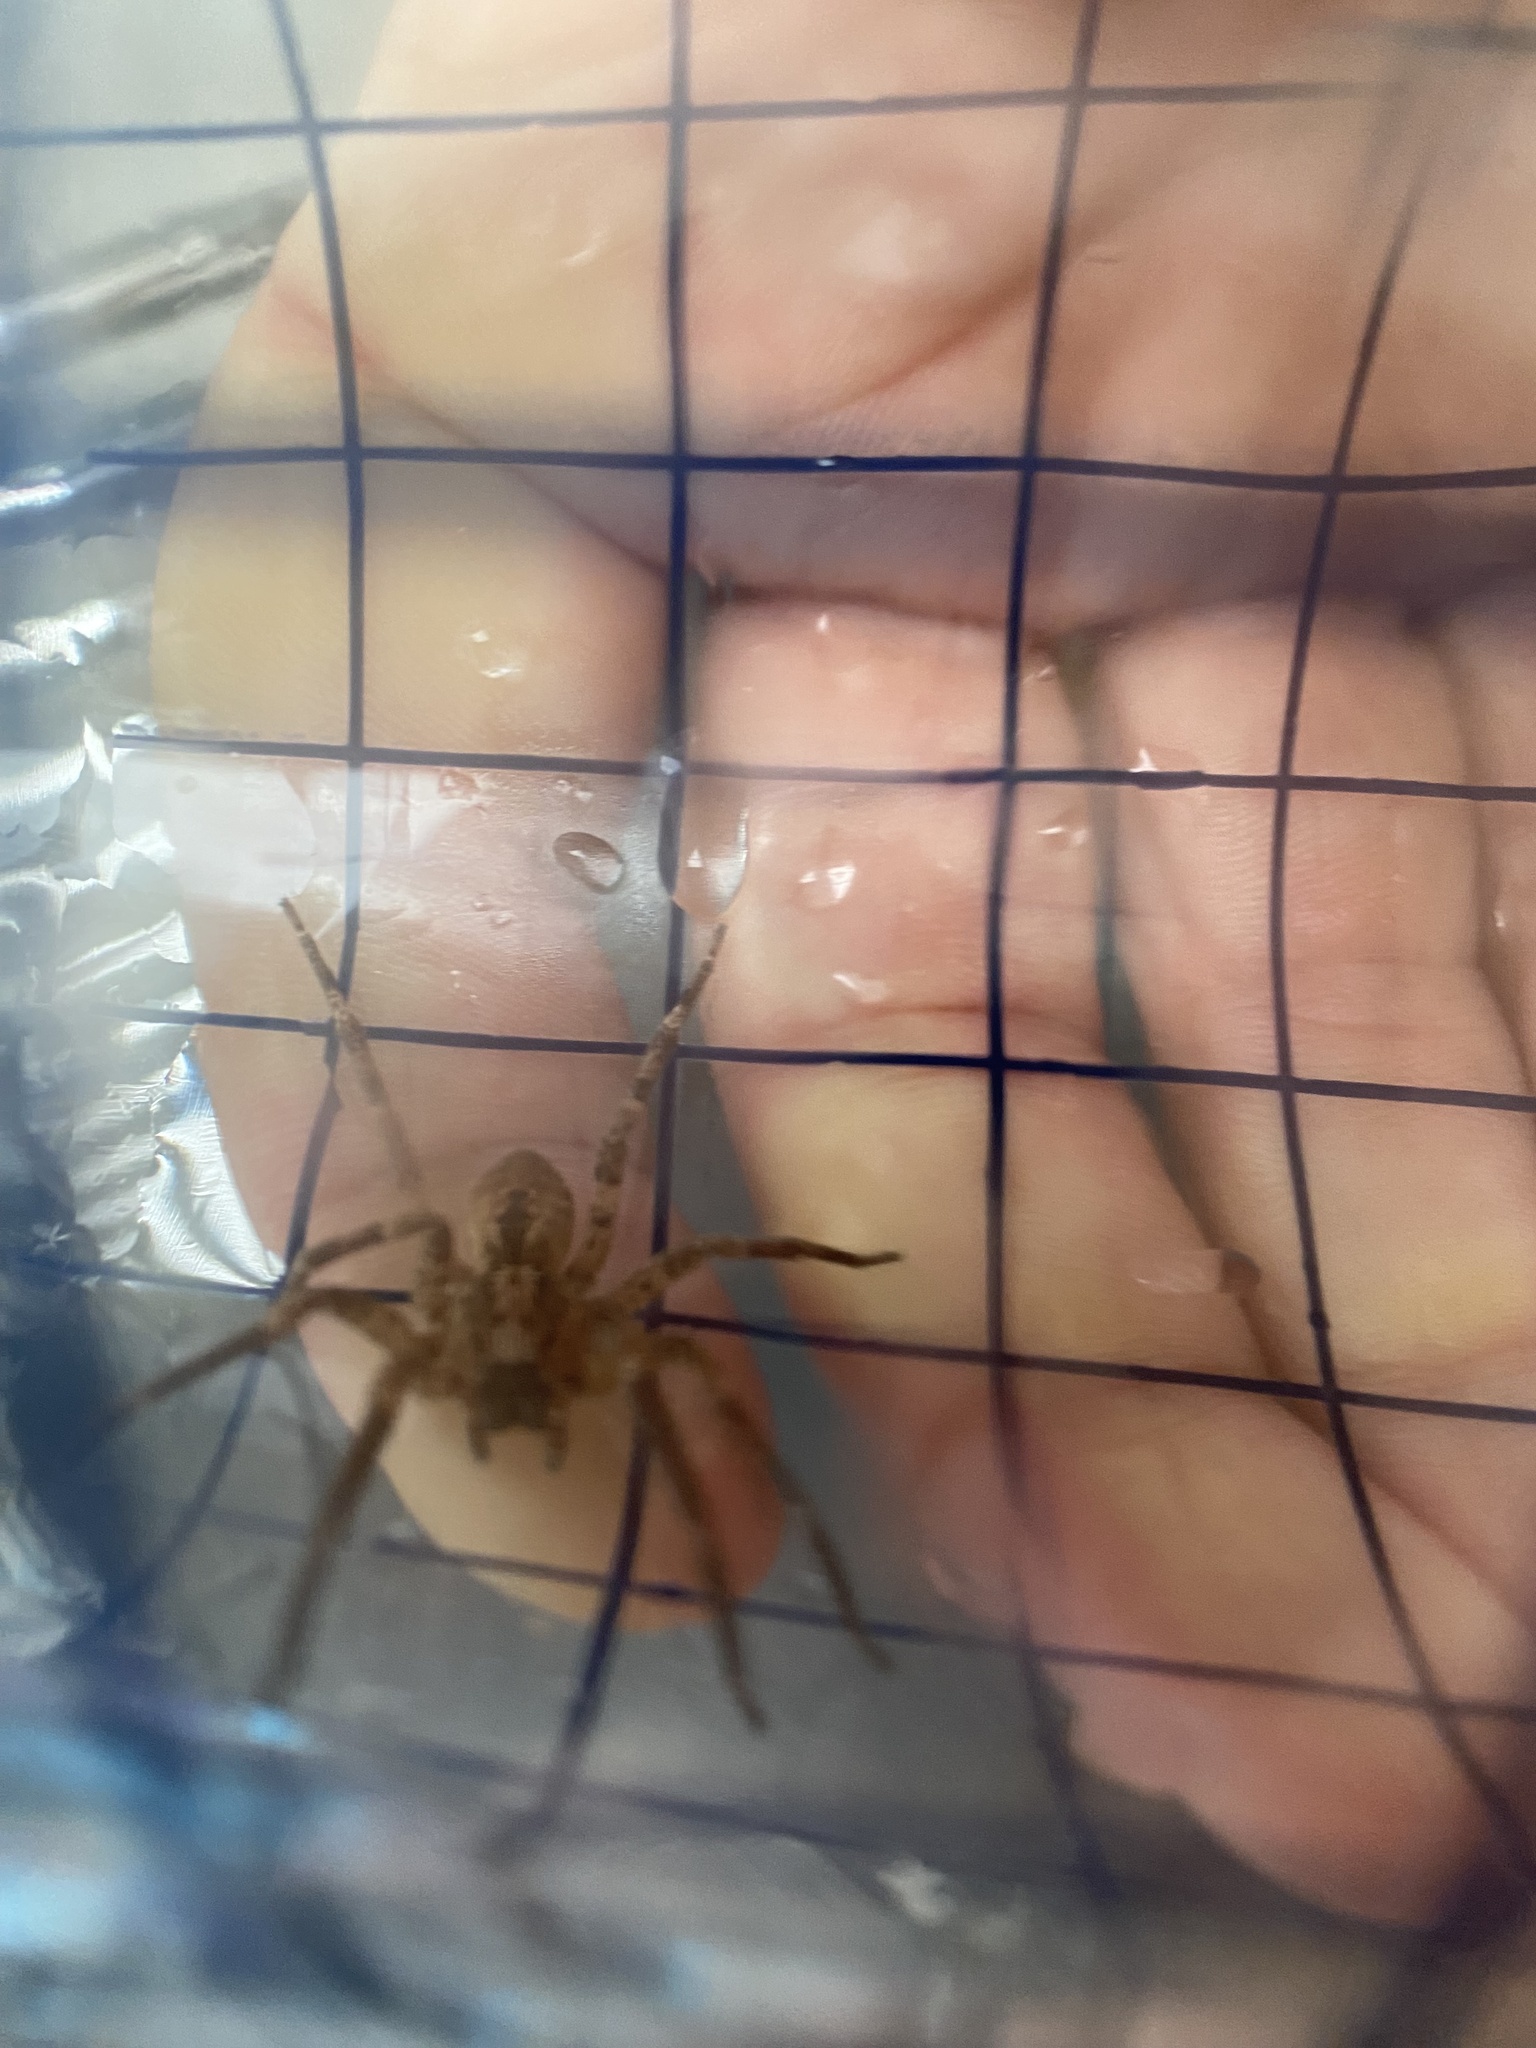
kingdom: Animalia
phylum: Arthropoda
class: Arachnida
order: Araneae
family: Zoropsidae
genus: Zoropsis
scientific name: Zoropsis spinimana
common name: Zoropsid spider
